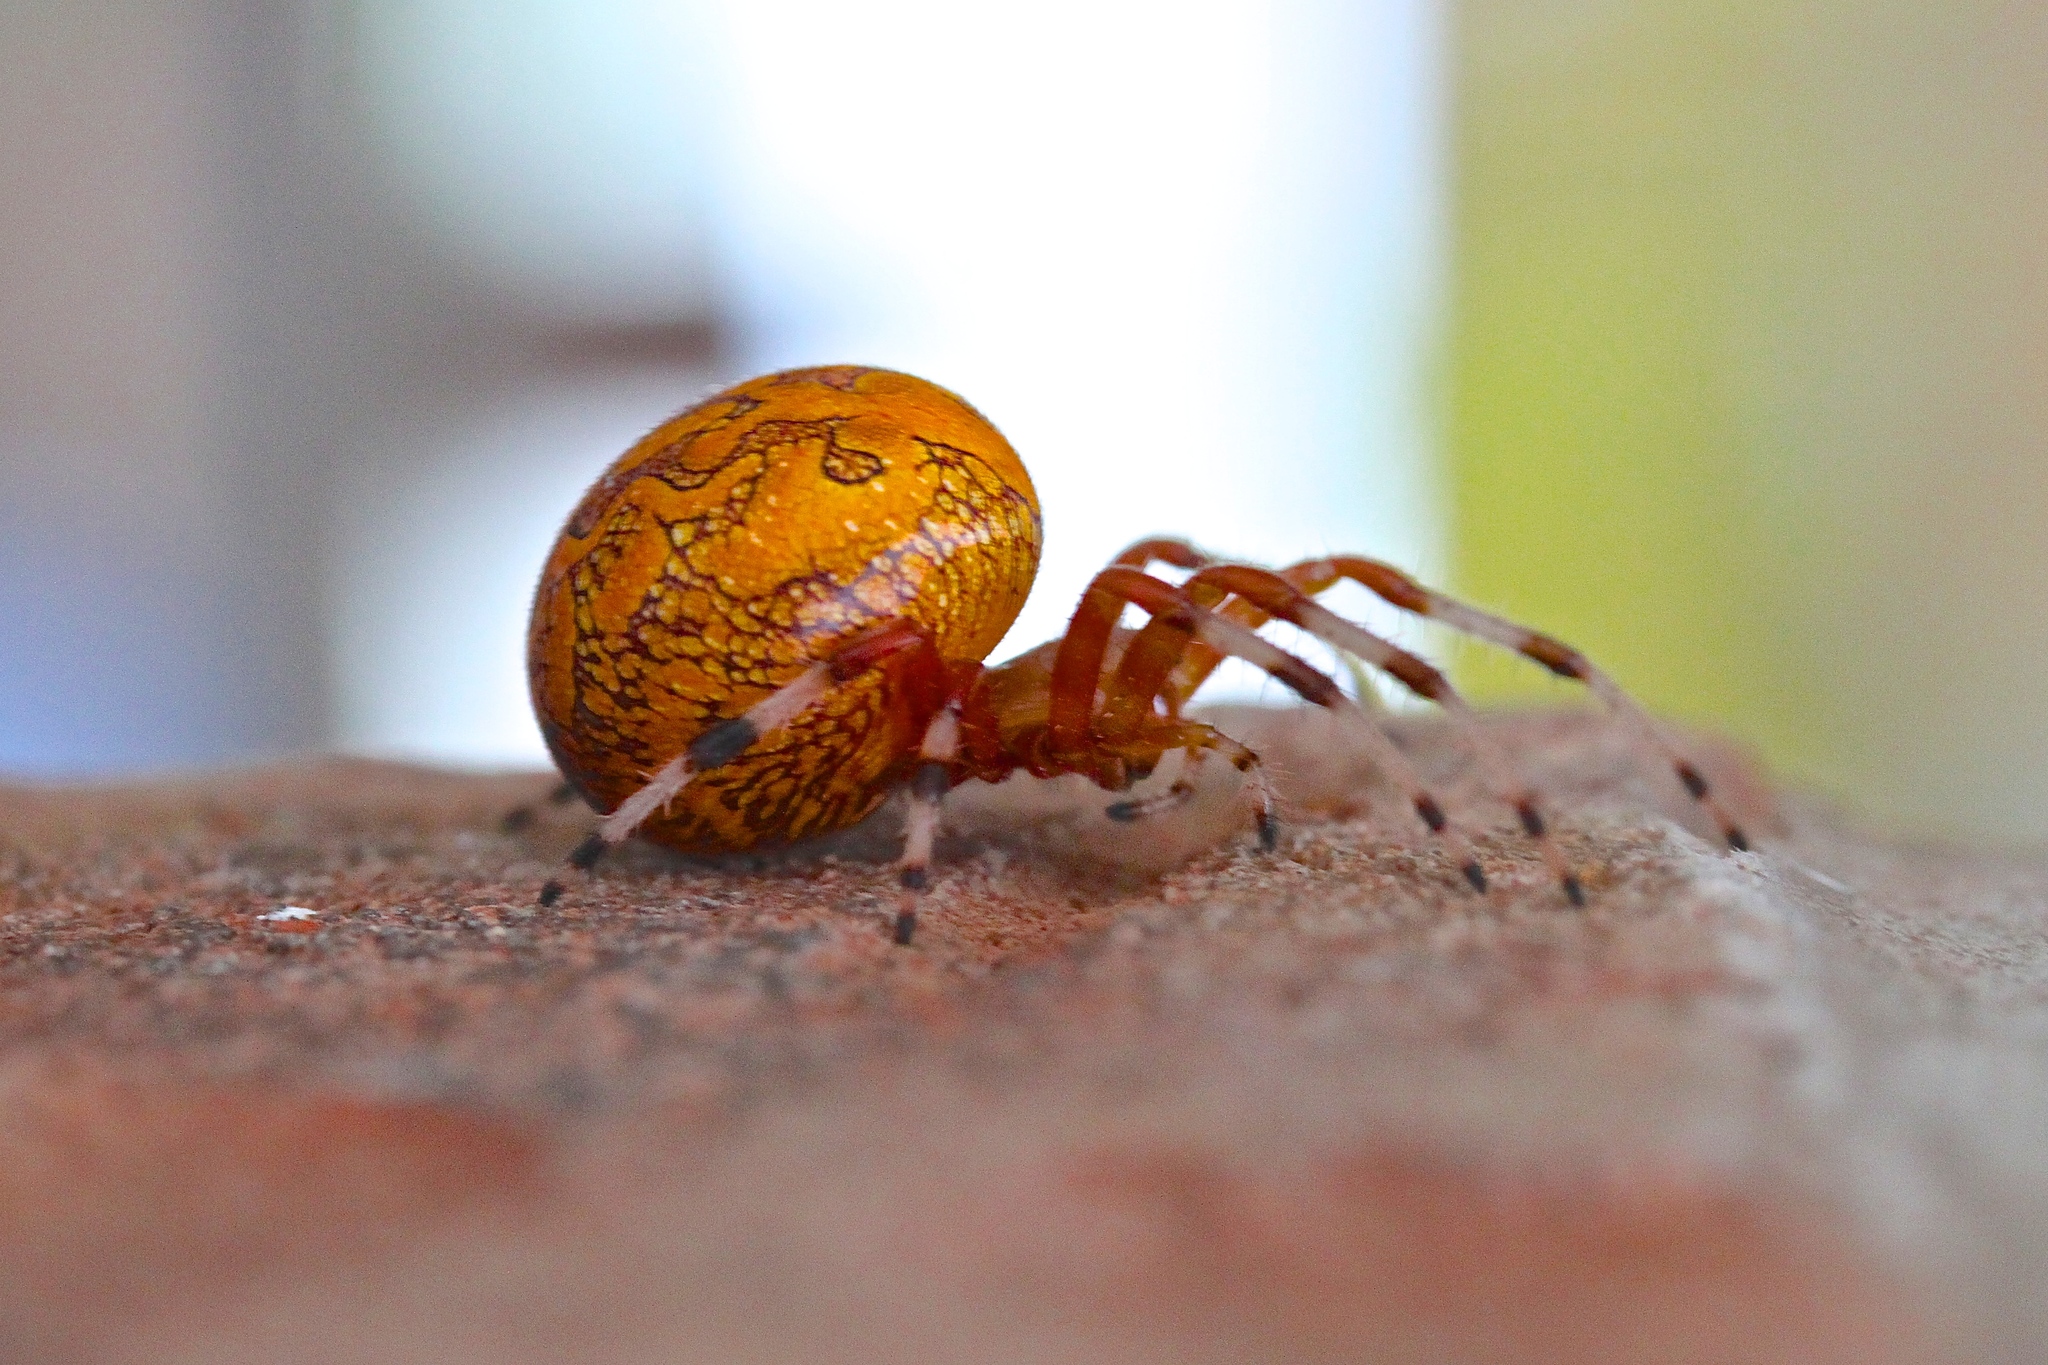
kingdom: Animalia
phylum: Arthropoda
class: Arachnida
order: Araneae
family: Araneidae
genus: Araneus
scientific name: Araneus marmoreus
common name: Marbled orbweaver
